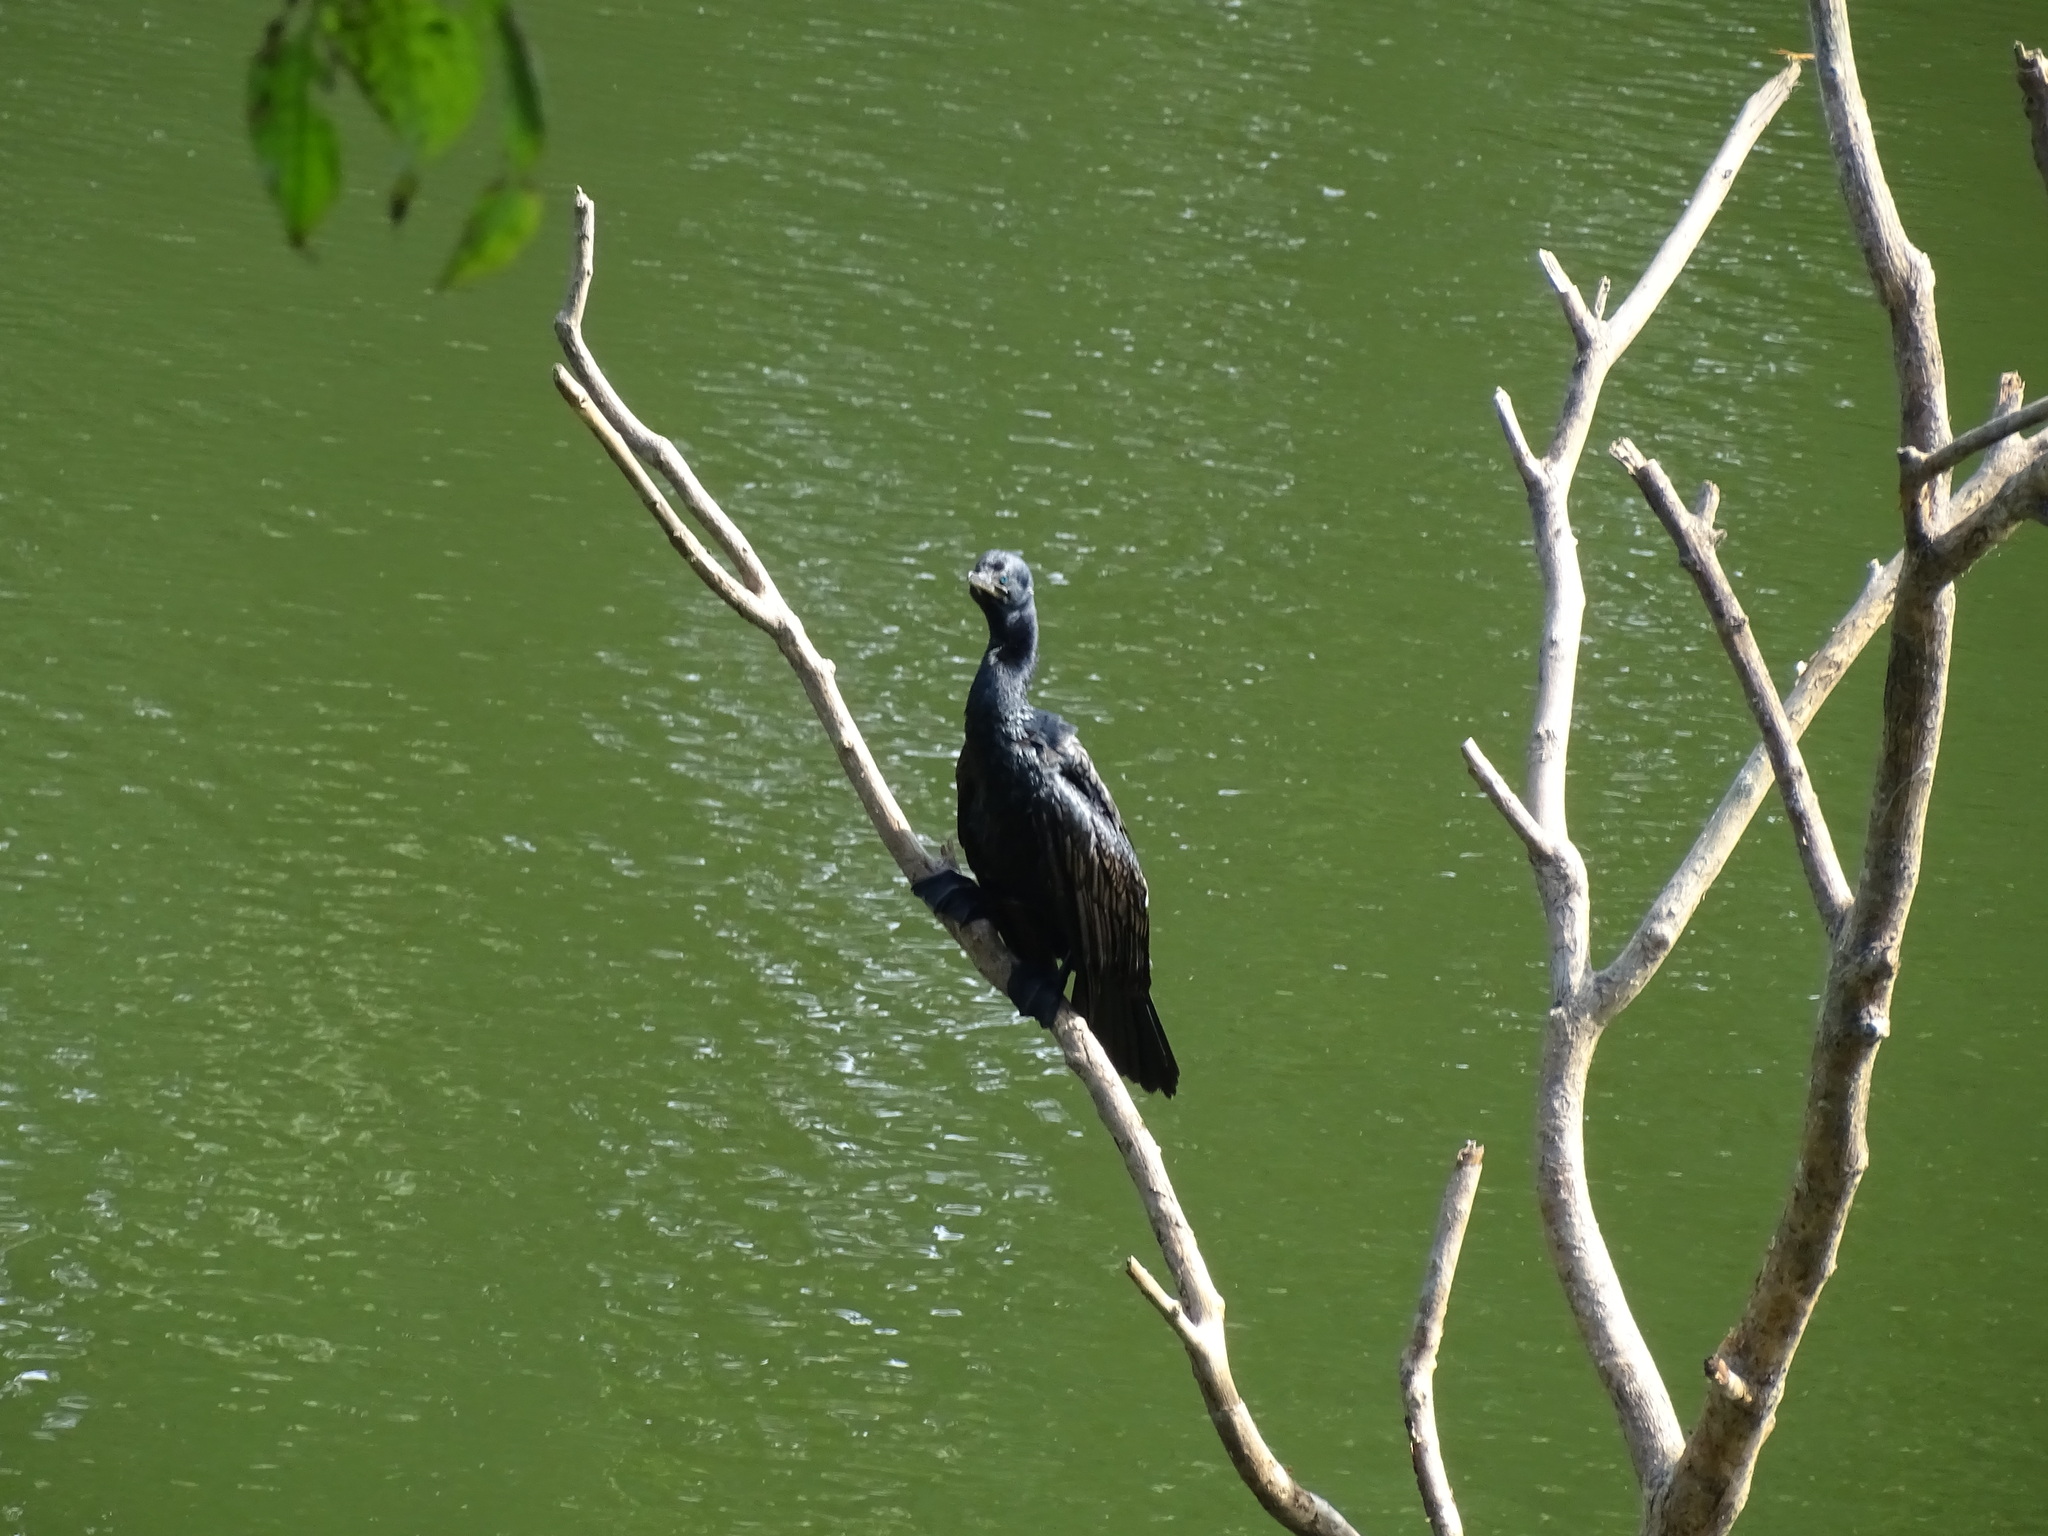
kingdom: Animalia
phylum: Chordata
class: Aves
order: Suliformes
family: Phalacrocoracidae
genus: Microcarbo
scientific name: Microcarbo niger
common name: Little cormorant
